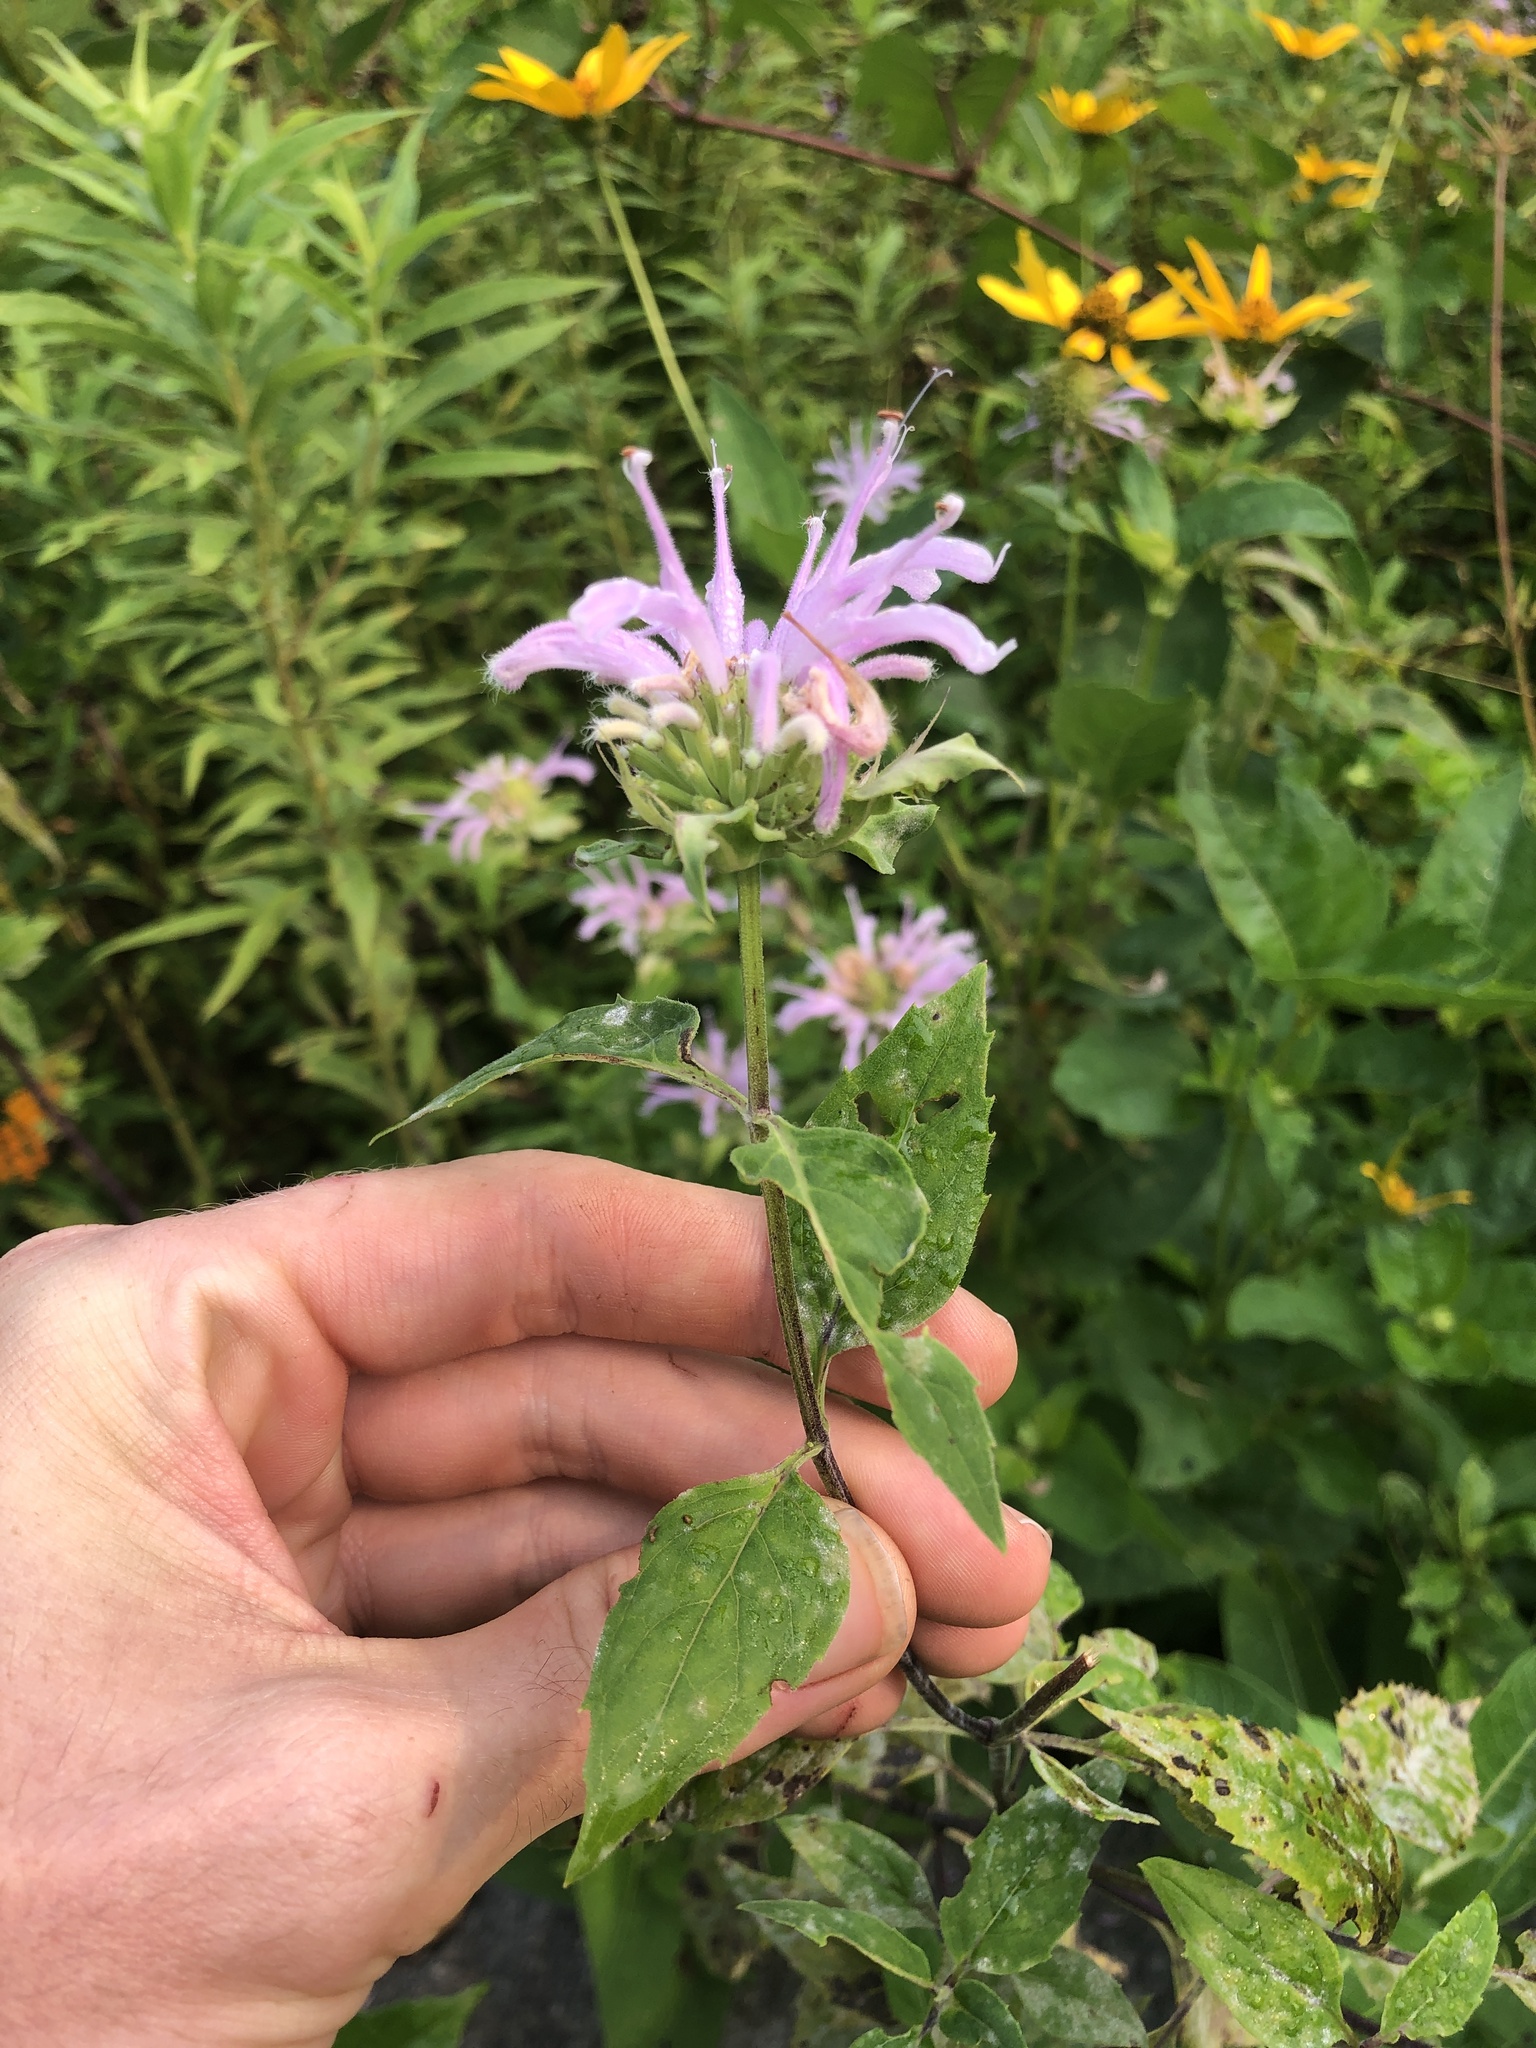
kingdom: Plantae
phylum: Tracheophyta
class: Magnoliopsida
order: Lamiales
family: Lamiaceae
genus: Monarda
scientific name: Monarda fistulosa
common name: Purple beebalm
